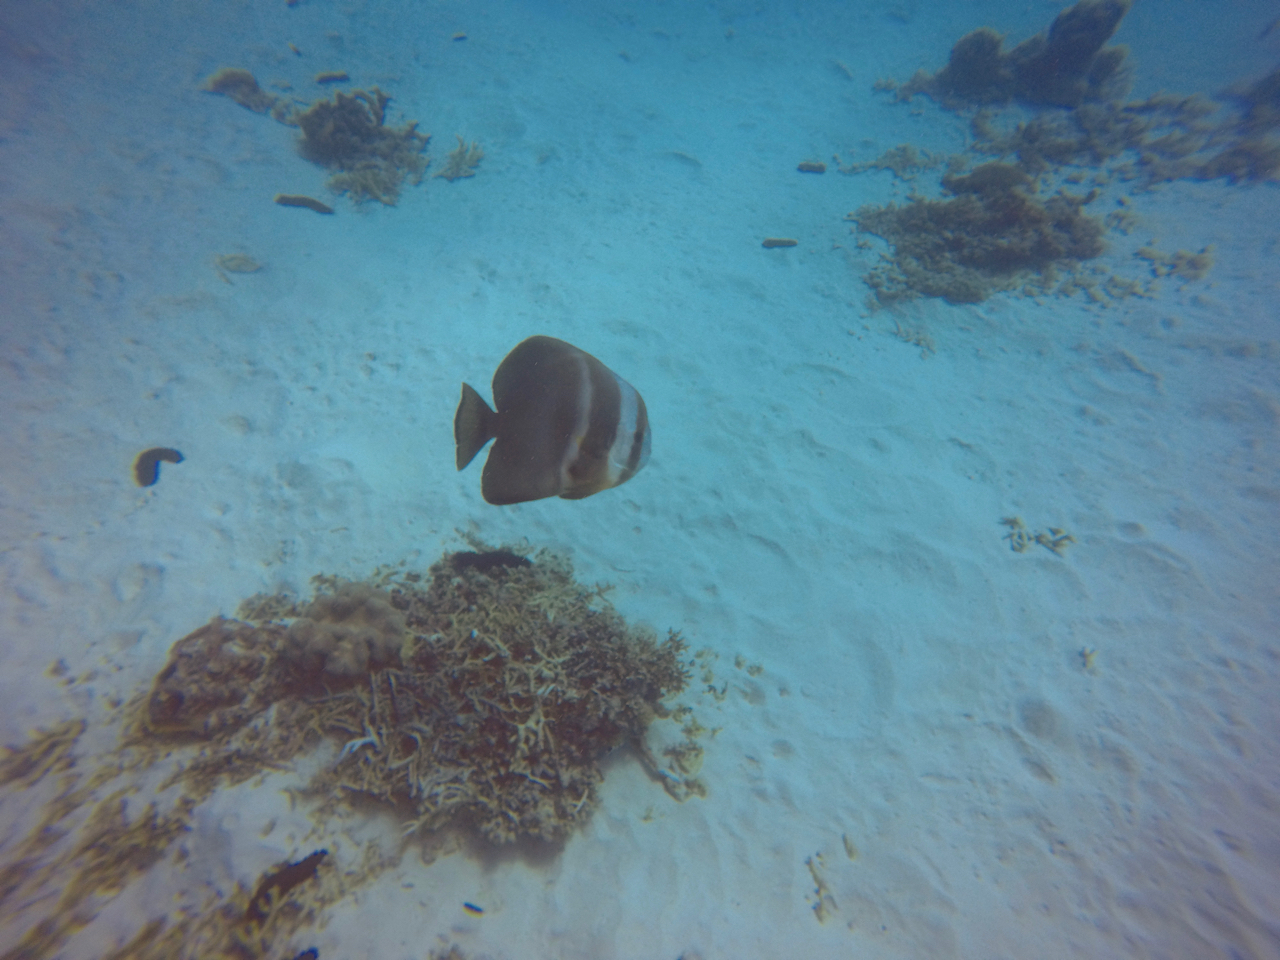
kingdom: Animalia
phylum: Chordata
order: Perciformes
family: Ephippidae
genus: Platax
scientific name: Platax teira
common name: Longfin baitfish
